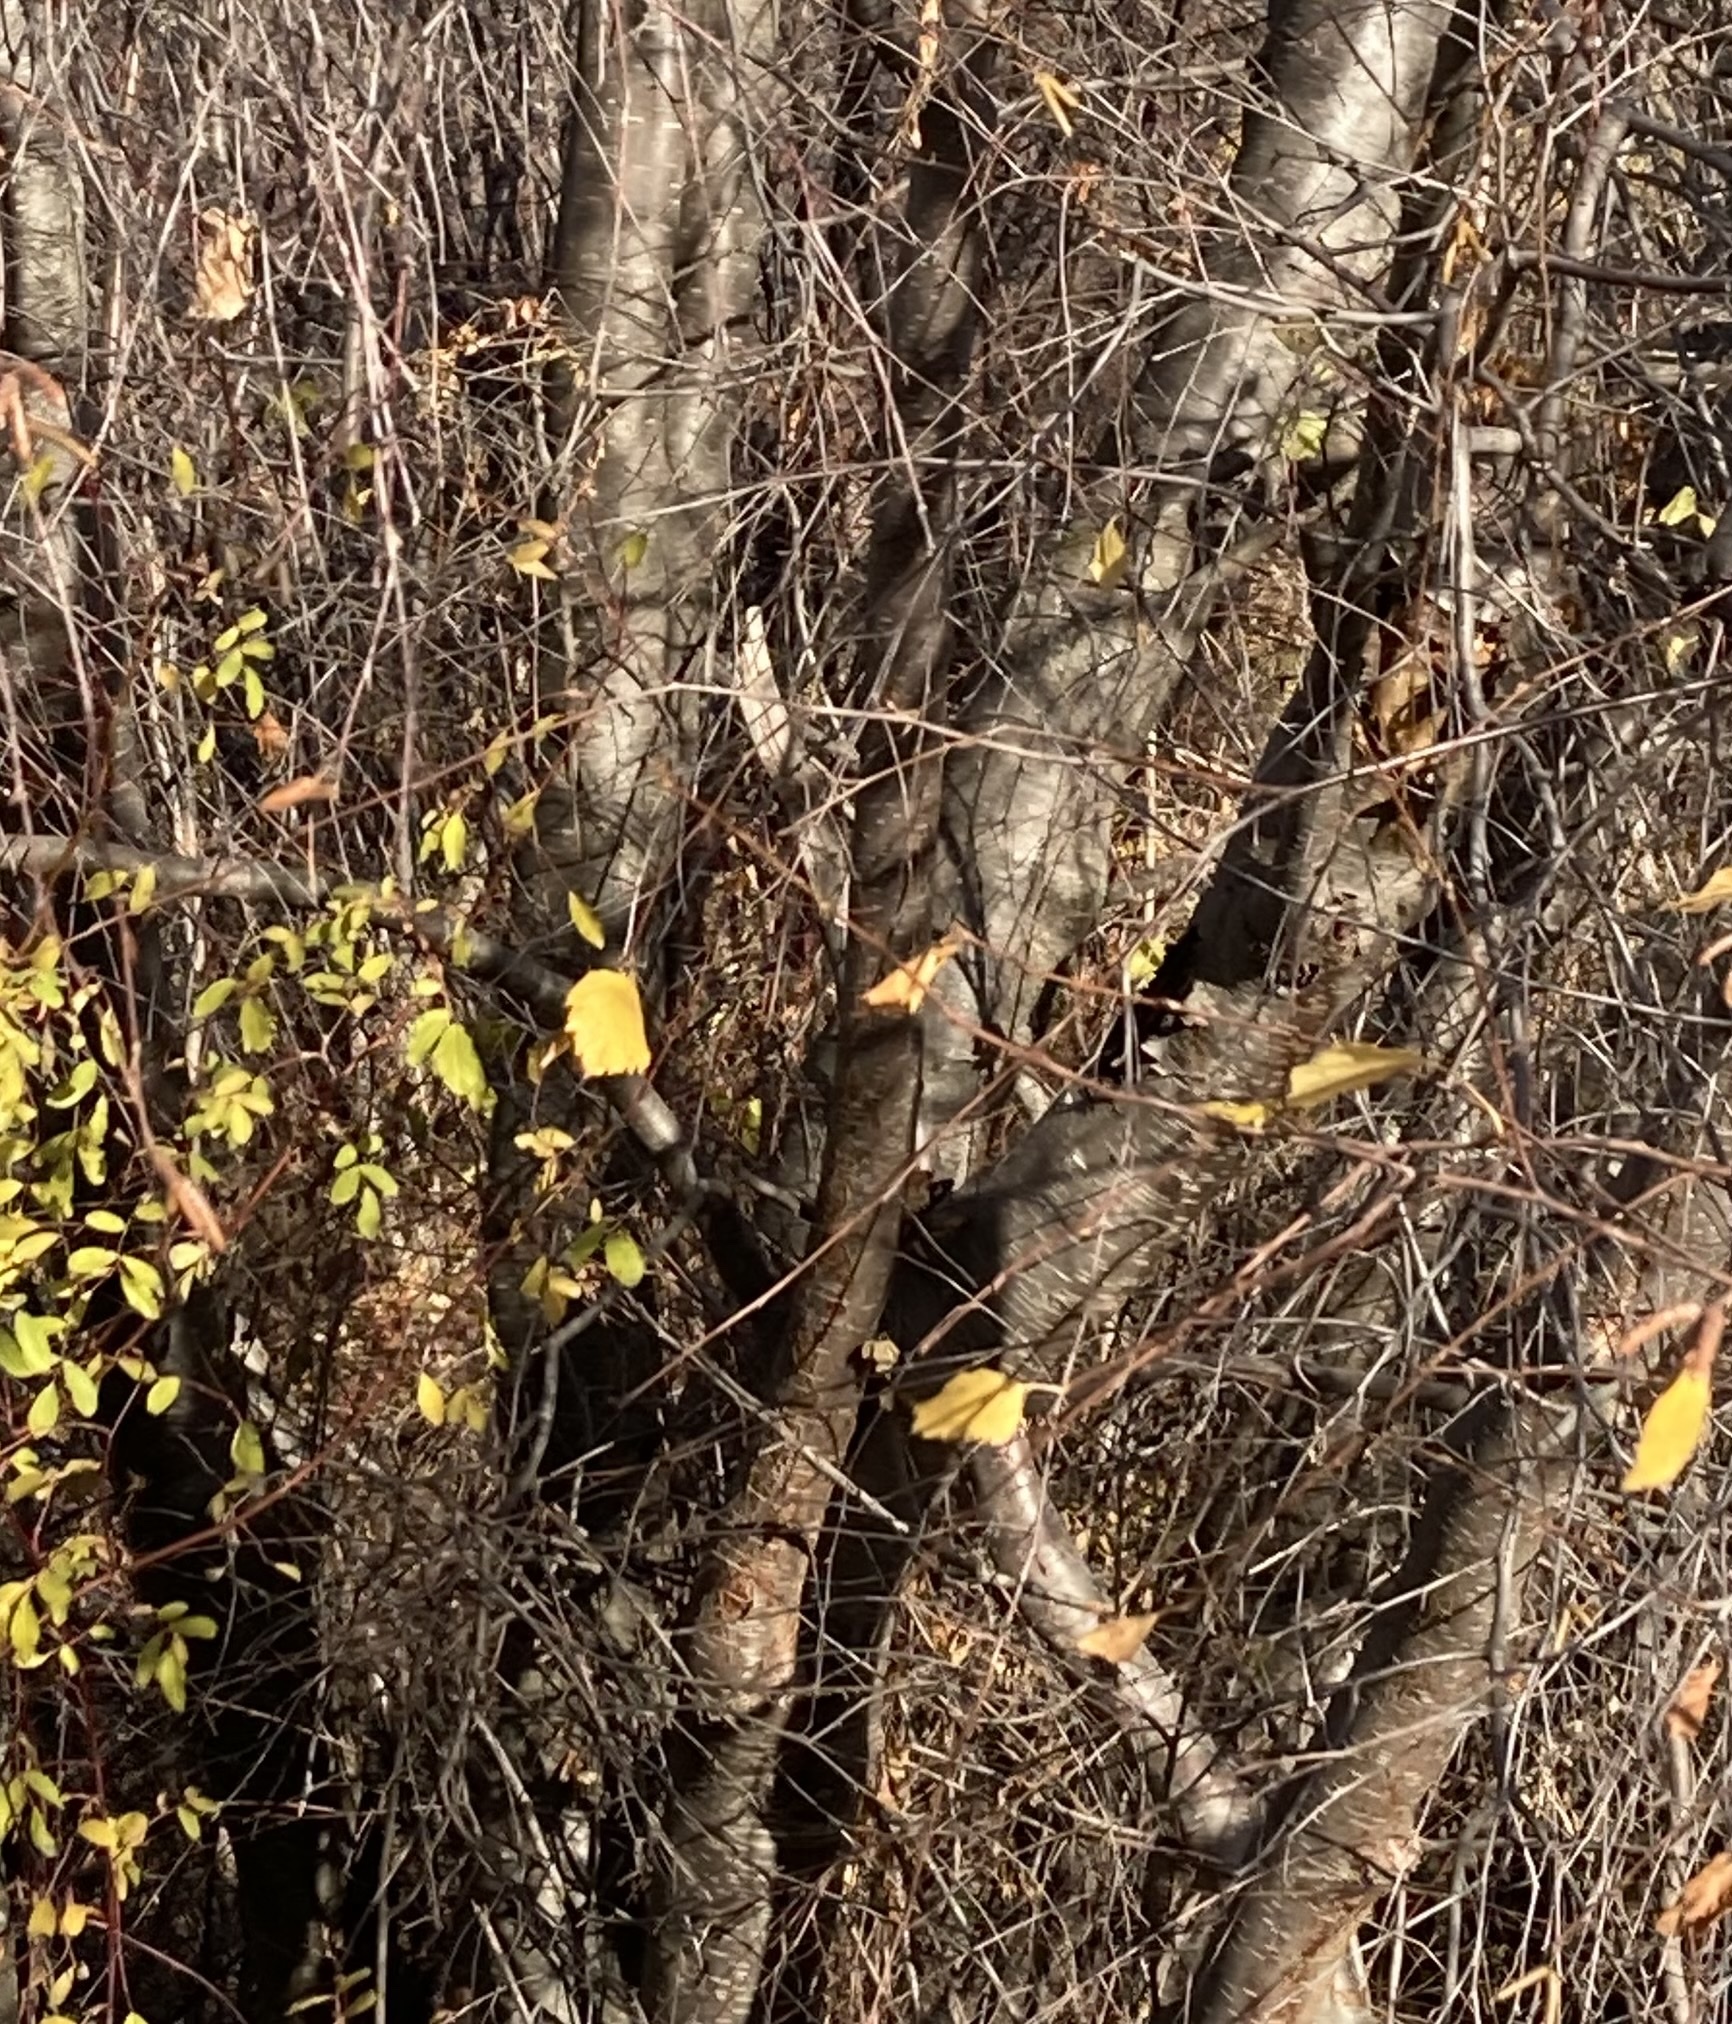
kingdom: Plantae
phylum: Tracheophyta
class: Magnoliopsida
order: Fagales
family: Betulaceae
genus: Betula
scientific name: Betula occidentalis
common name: River birch
